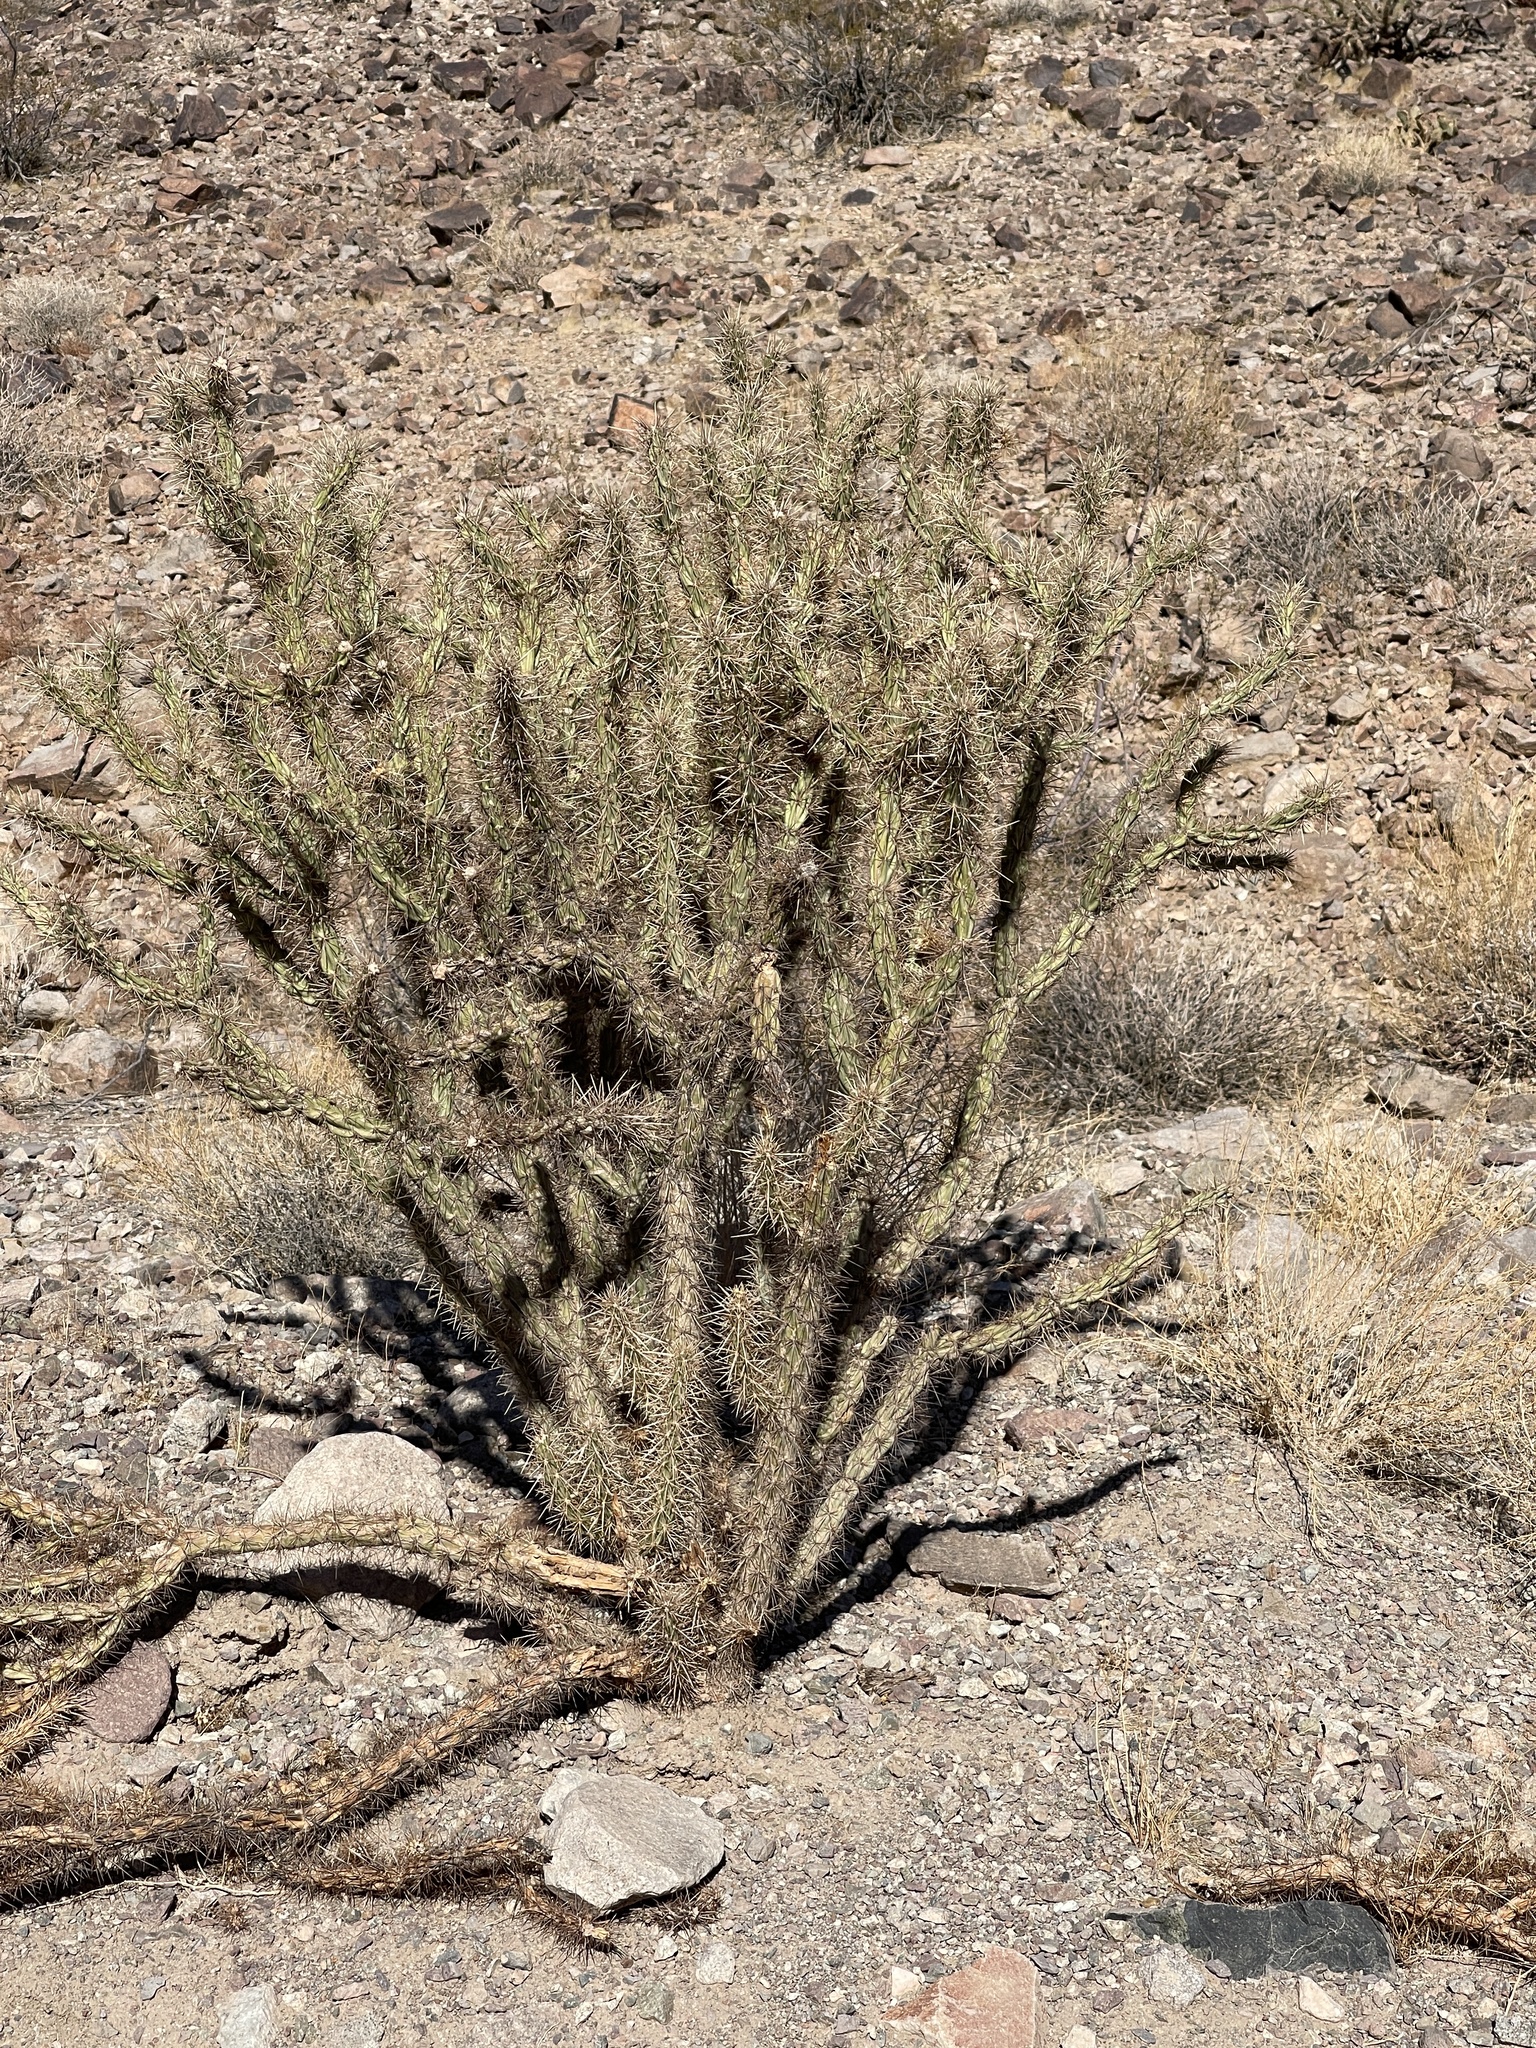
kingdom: Plantae
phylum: Tracheophyta
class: Magnoliopsida
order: Caryophyllales
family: Cactaceae
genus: Cylindropuntia
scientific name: Cylindropuntia acanthocarpa
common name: Buckhorn cholla
